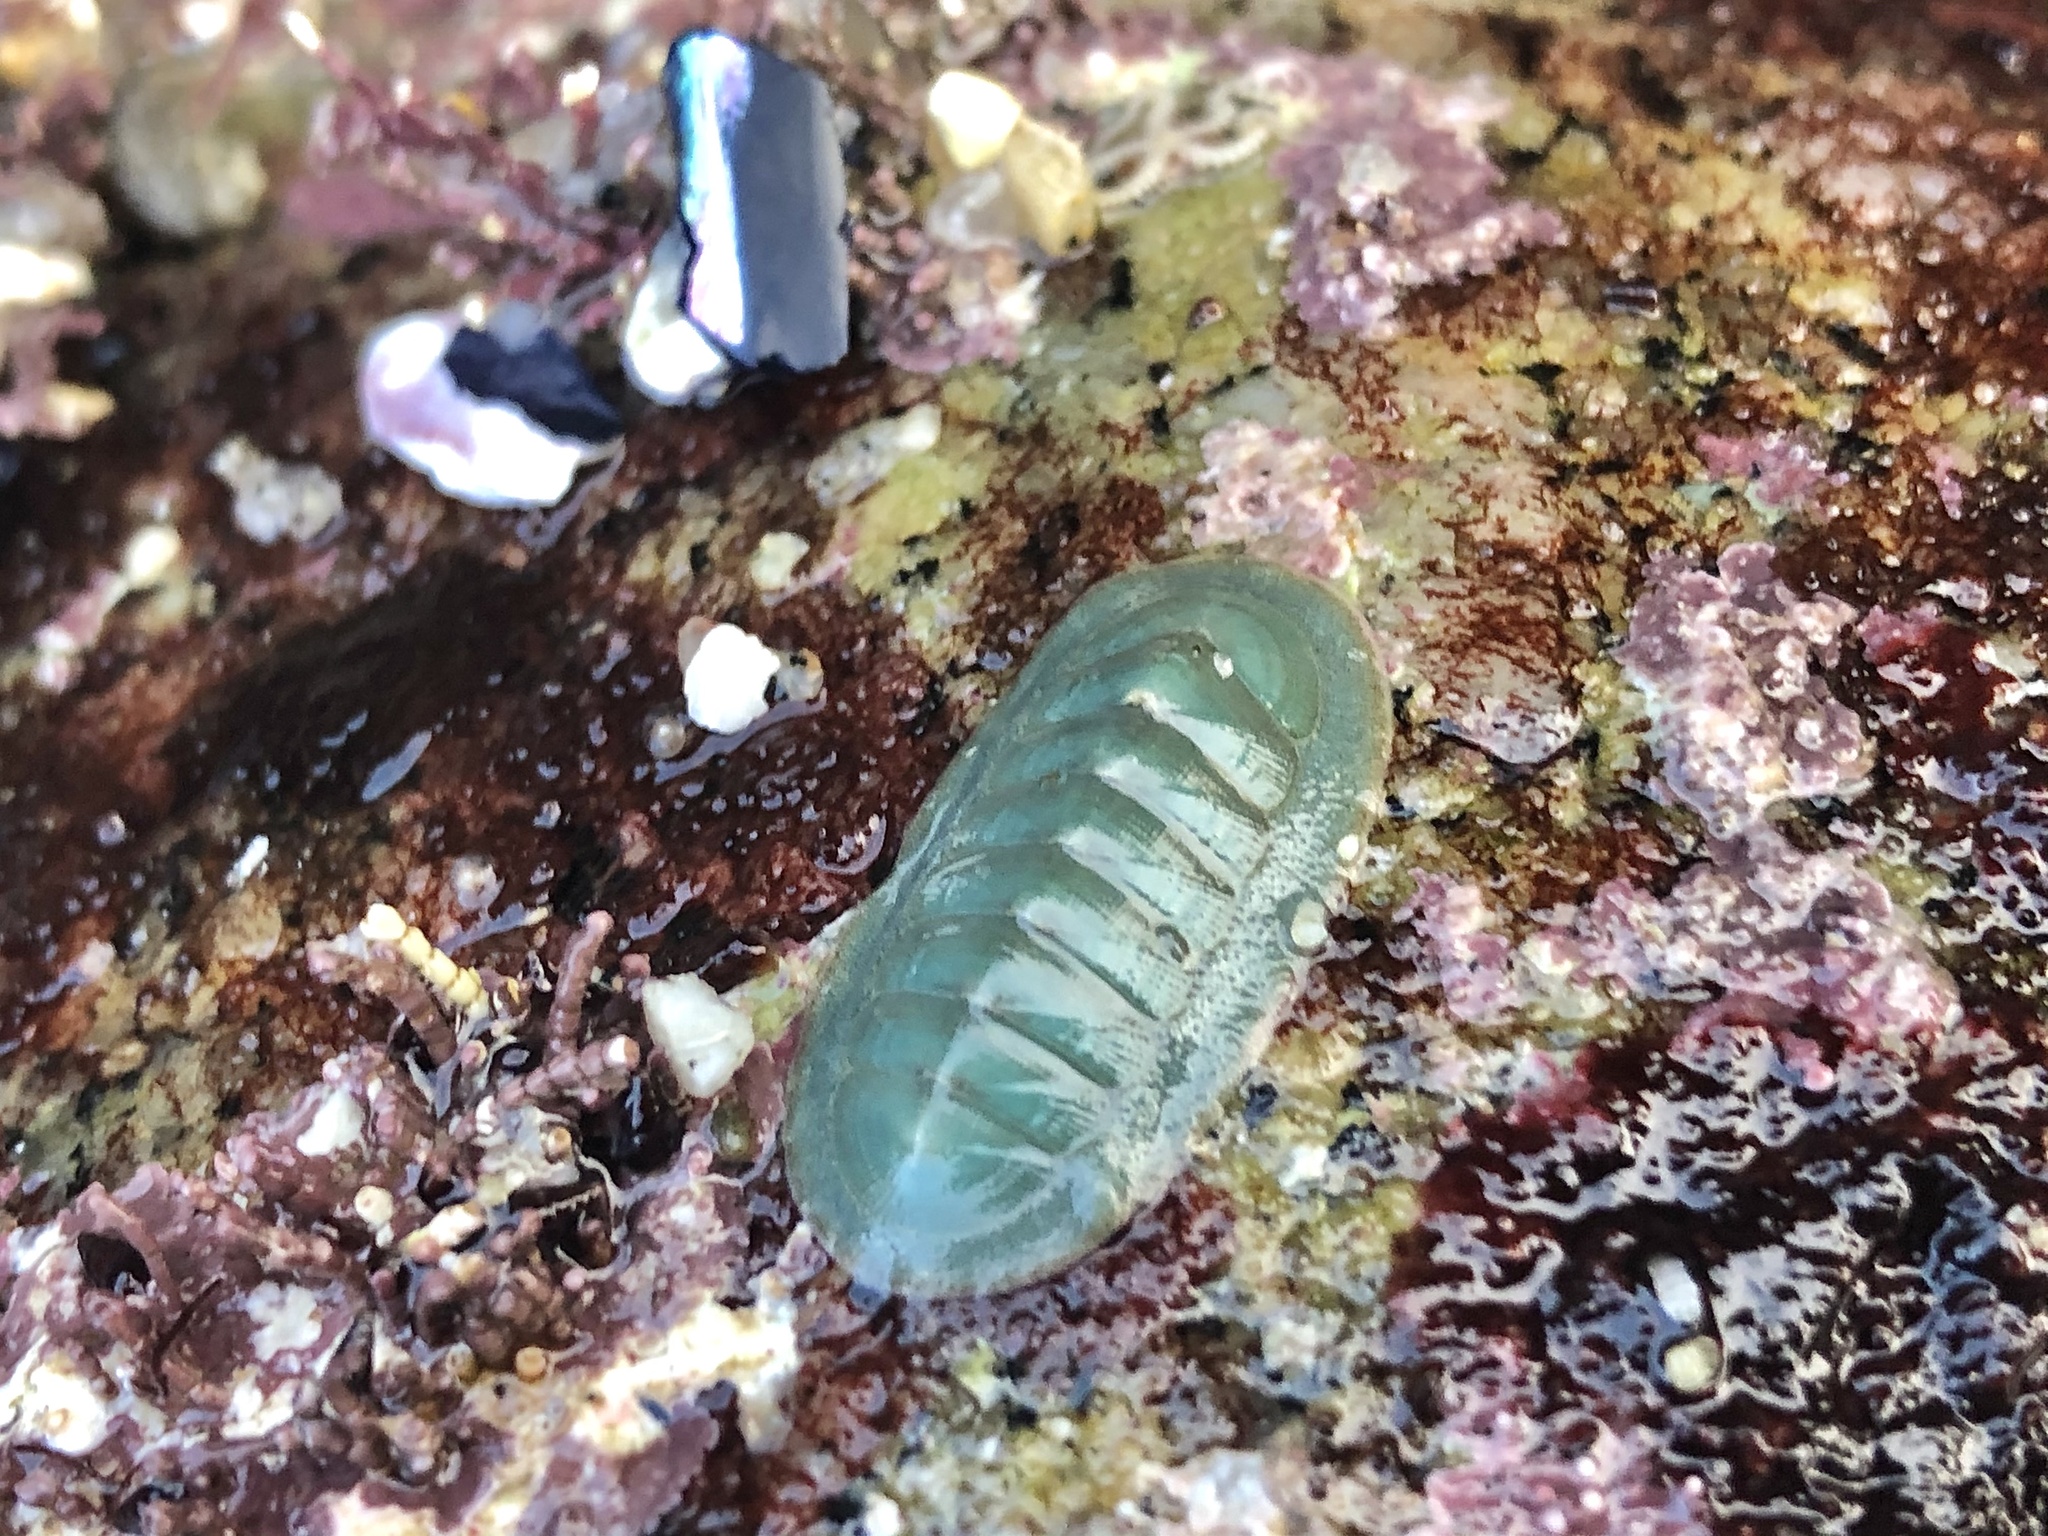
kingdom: Animalia
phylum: Mollusca
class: Polyplacophora
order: Chitonida
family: Ischnochitonidae
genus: Tripoplax
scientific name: Tripoplax regularis
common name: Regular chiton
